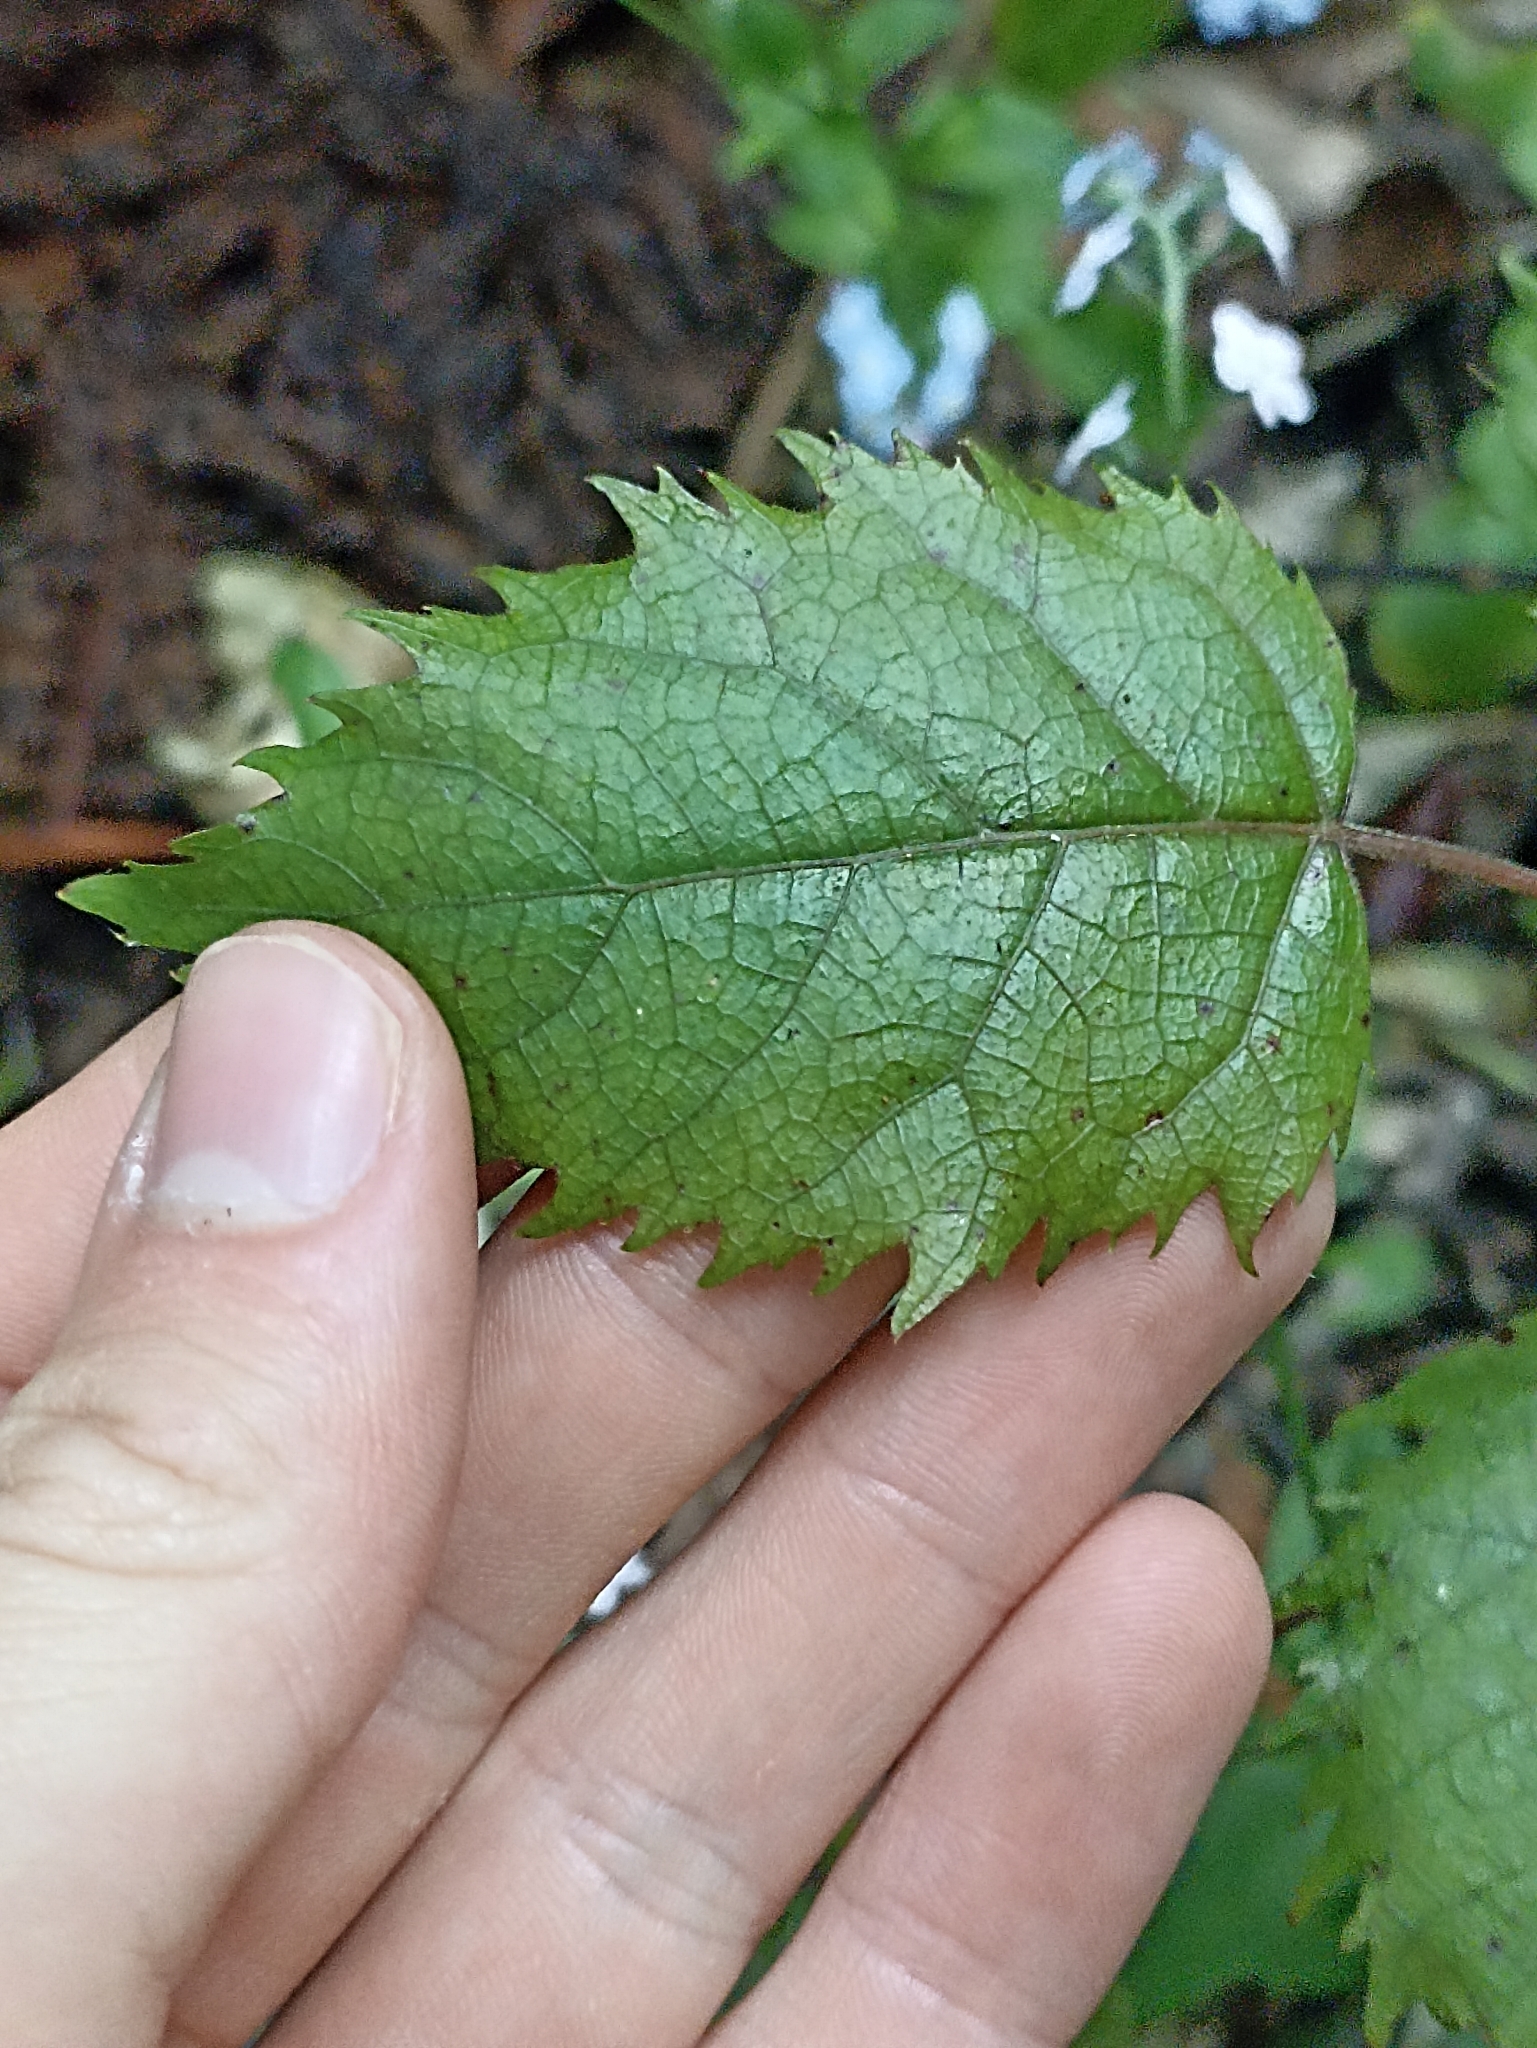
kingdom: Plantae
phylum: Tracheophyta
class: Magnoliopsida
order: Oxalidales
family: Elaeocarpaceae
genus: Aristotelia
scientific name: Aristotelia serrata
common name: New zealand wineberry
